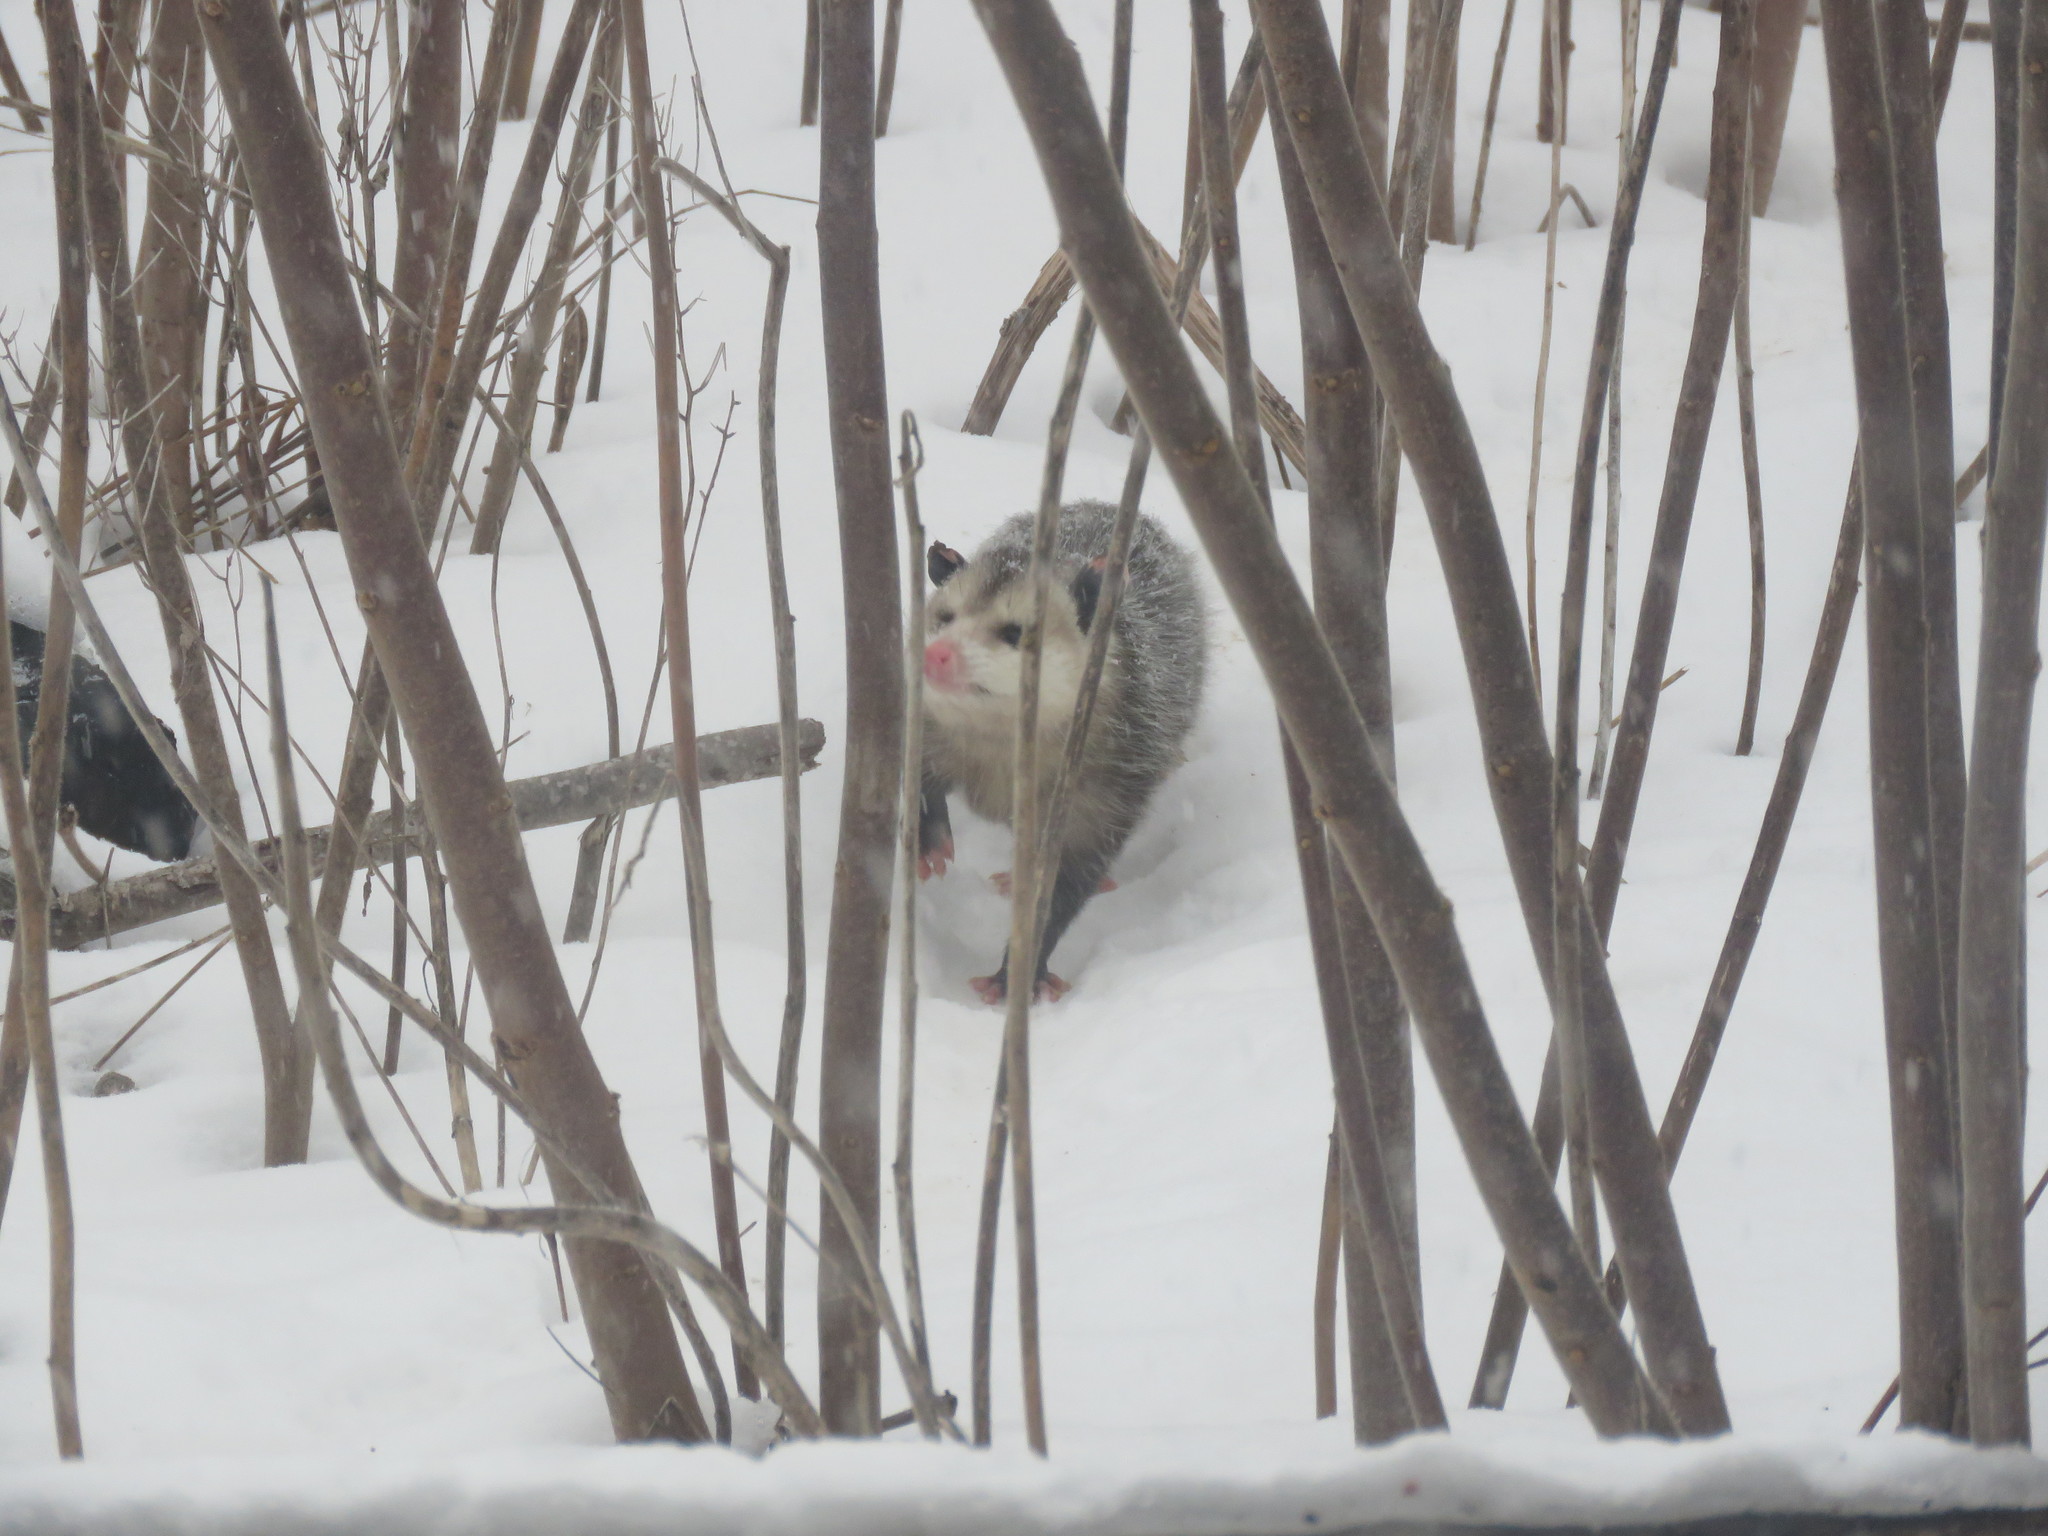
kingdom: Animalia
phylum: Chordata
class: Mammalia
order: Didelphimorphia
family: Didelphidae
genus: Didelphis
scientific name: Didelphis virginiana
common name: Virginia opossum
